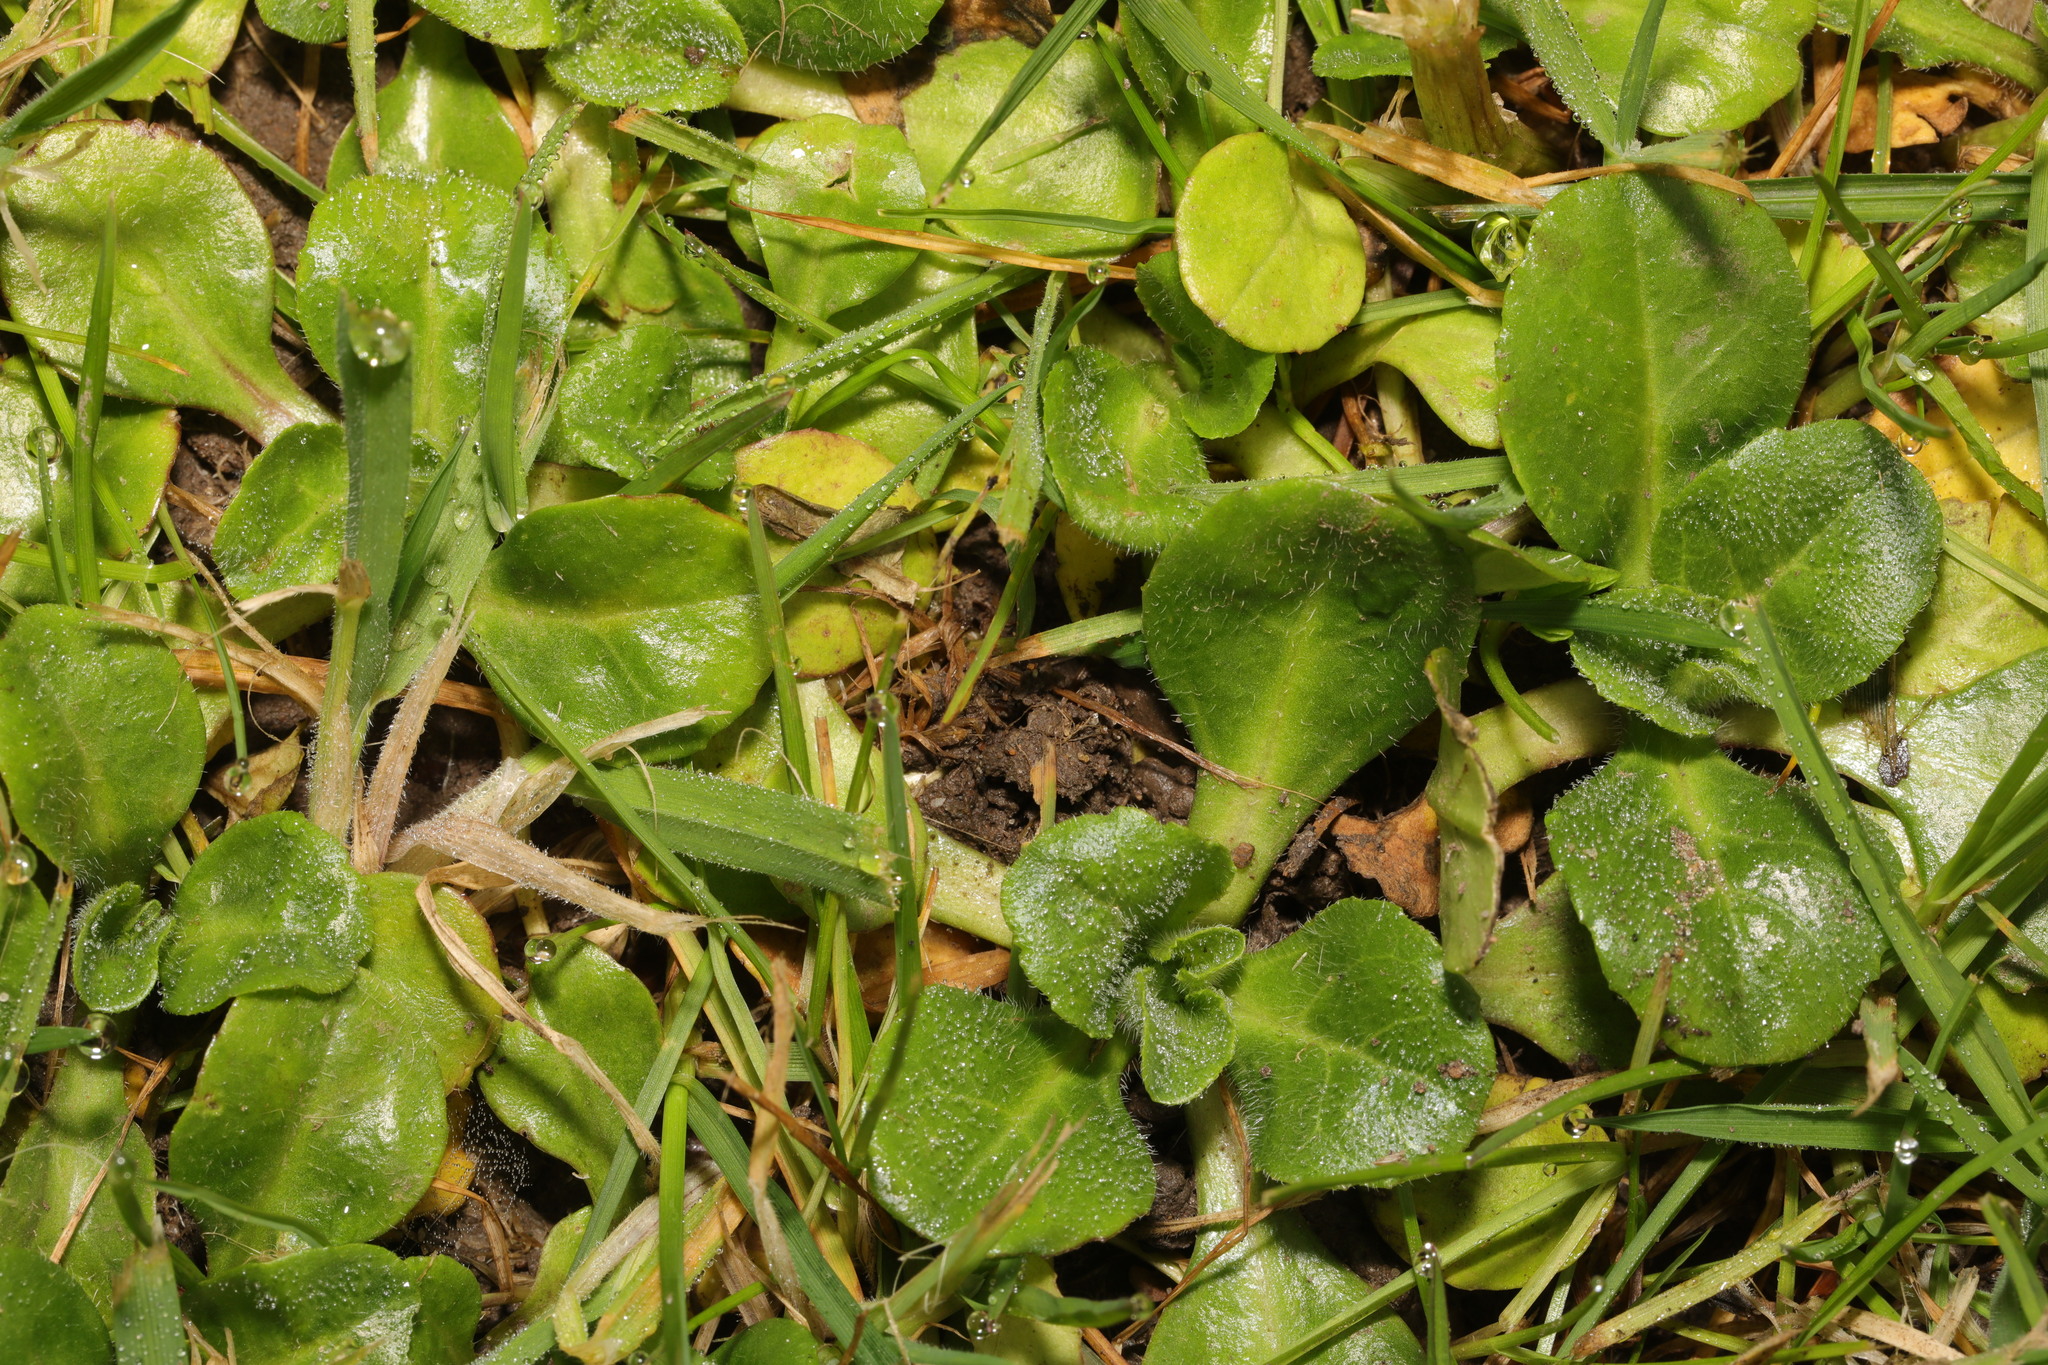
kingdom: Plantae
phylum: Tracheophyta
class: Magnoliopsida
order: Asterales
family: Asteraceae
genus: Bellis
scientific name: Bellis perennis
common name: Lawndaisy
